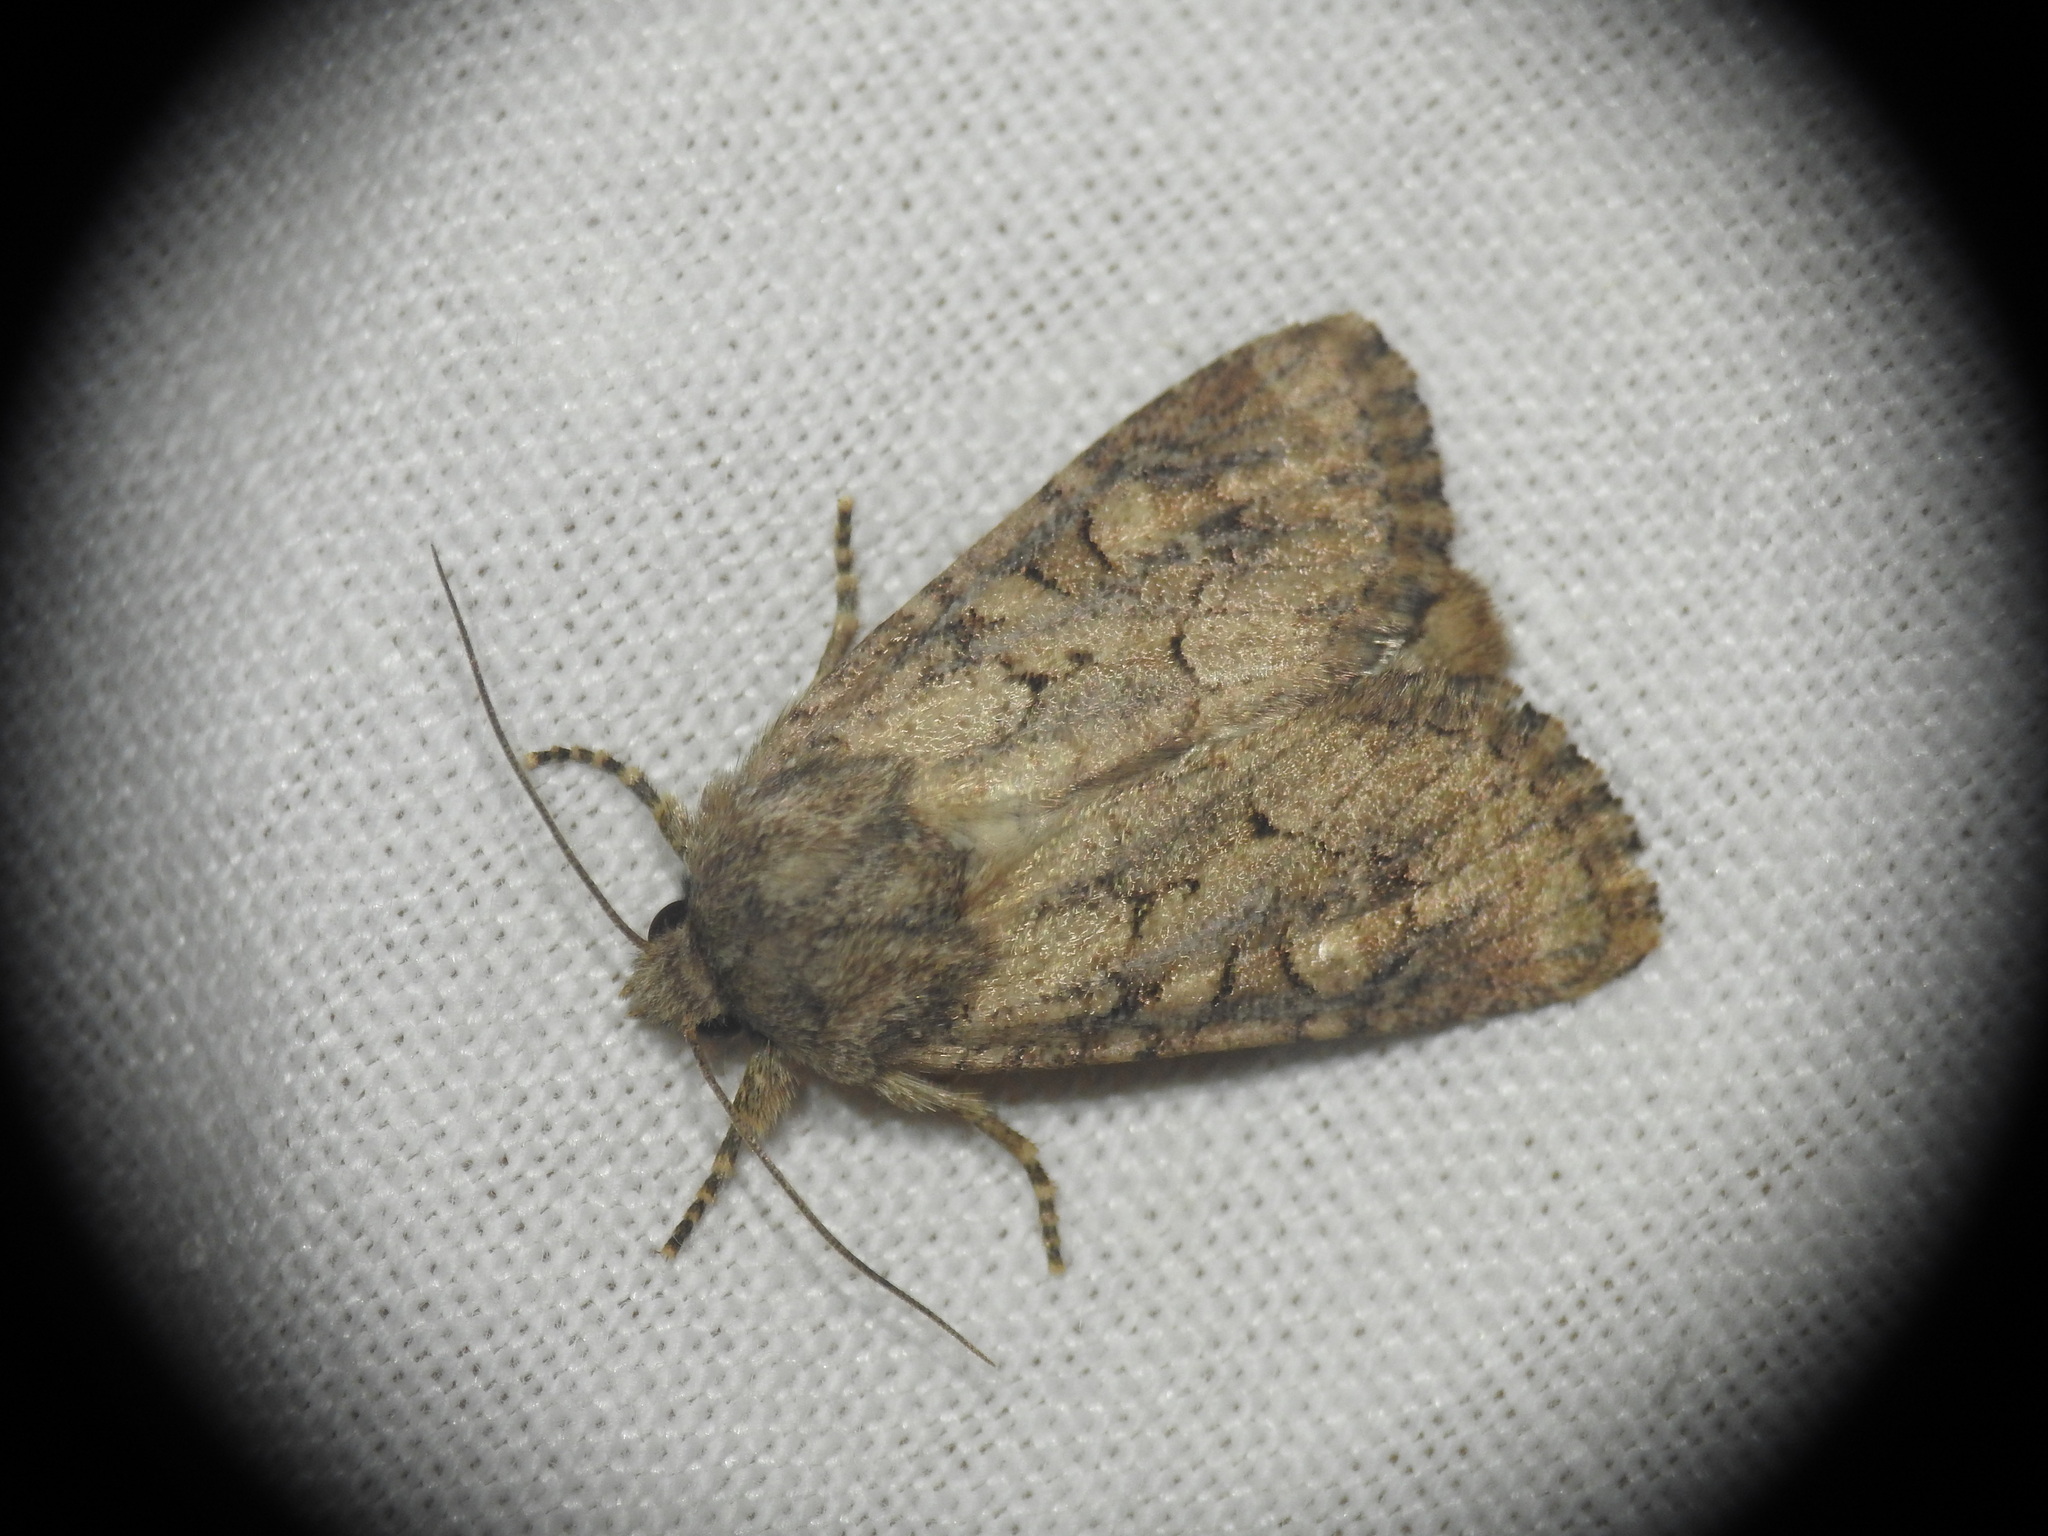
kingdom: Animalia
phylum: Arthropoda
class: Insecta
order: Lepidoptera
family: Noctuidae
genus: Luperina
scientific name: Luperina testacea
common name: Flounced rustic
